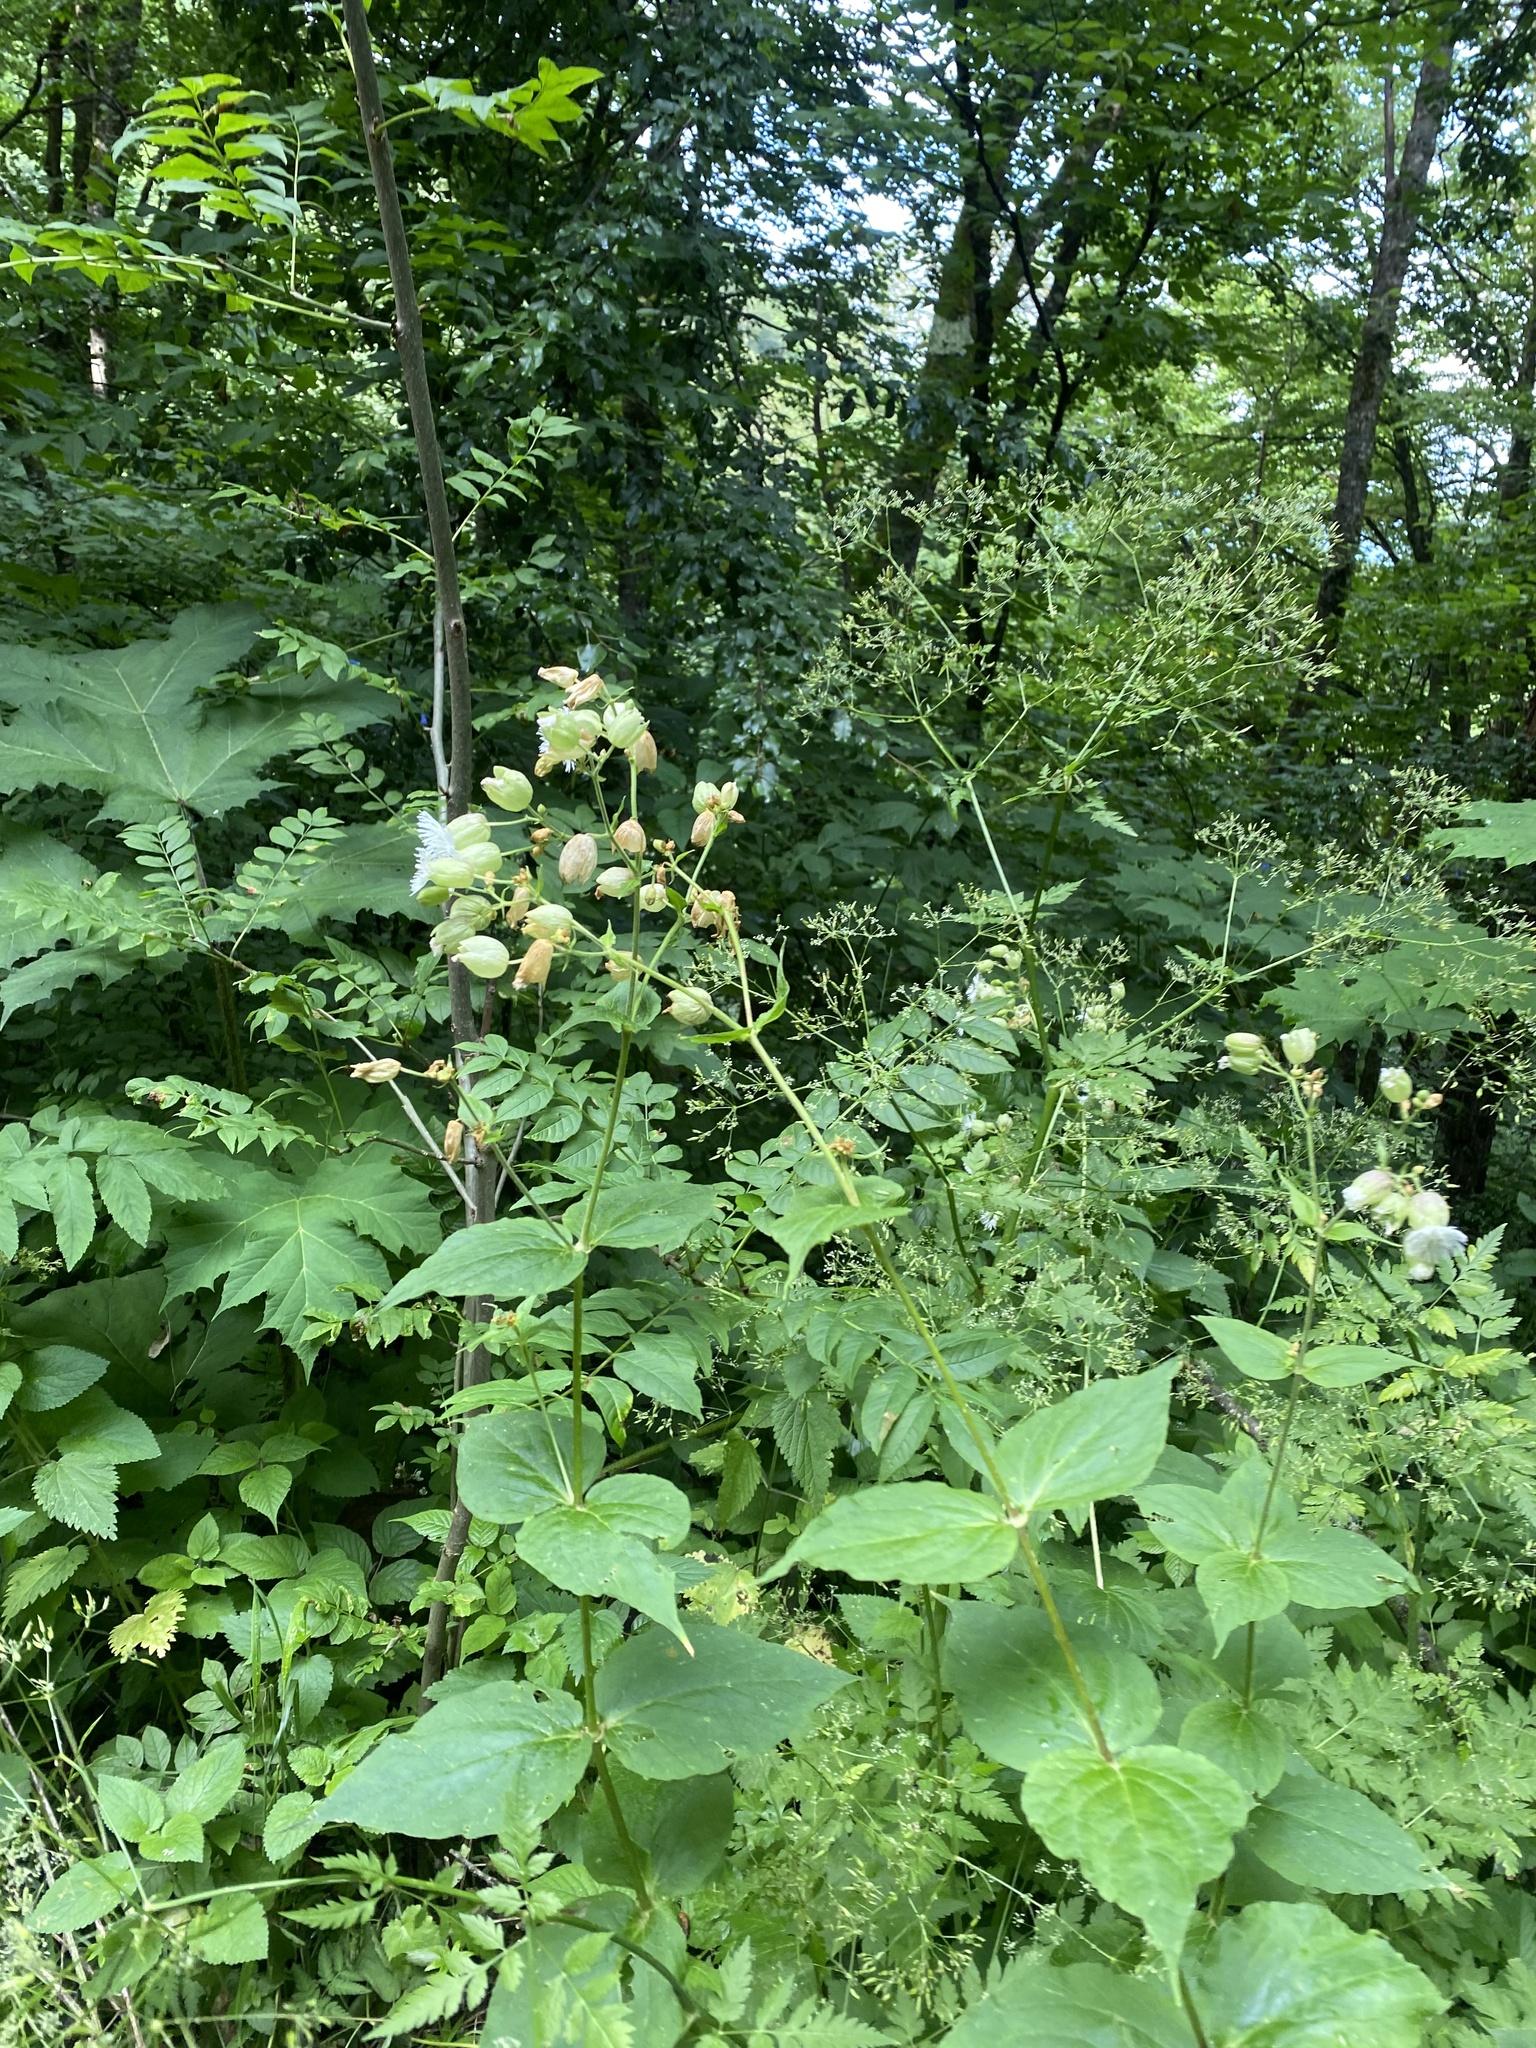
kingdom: Plantae
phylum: Tracheophyta
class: Magnoliopsida
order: Caryophyllales
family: Caryophyllaceae
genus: Silene
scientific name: Silene
